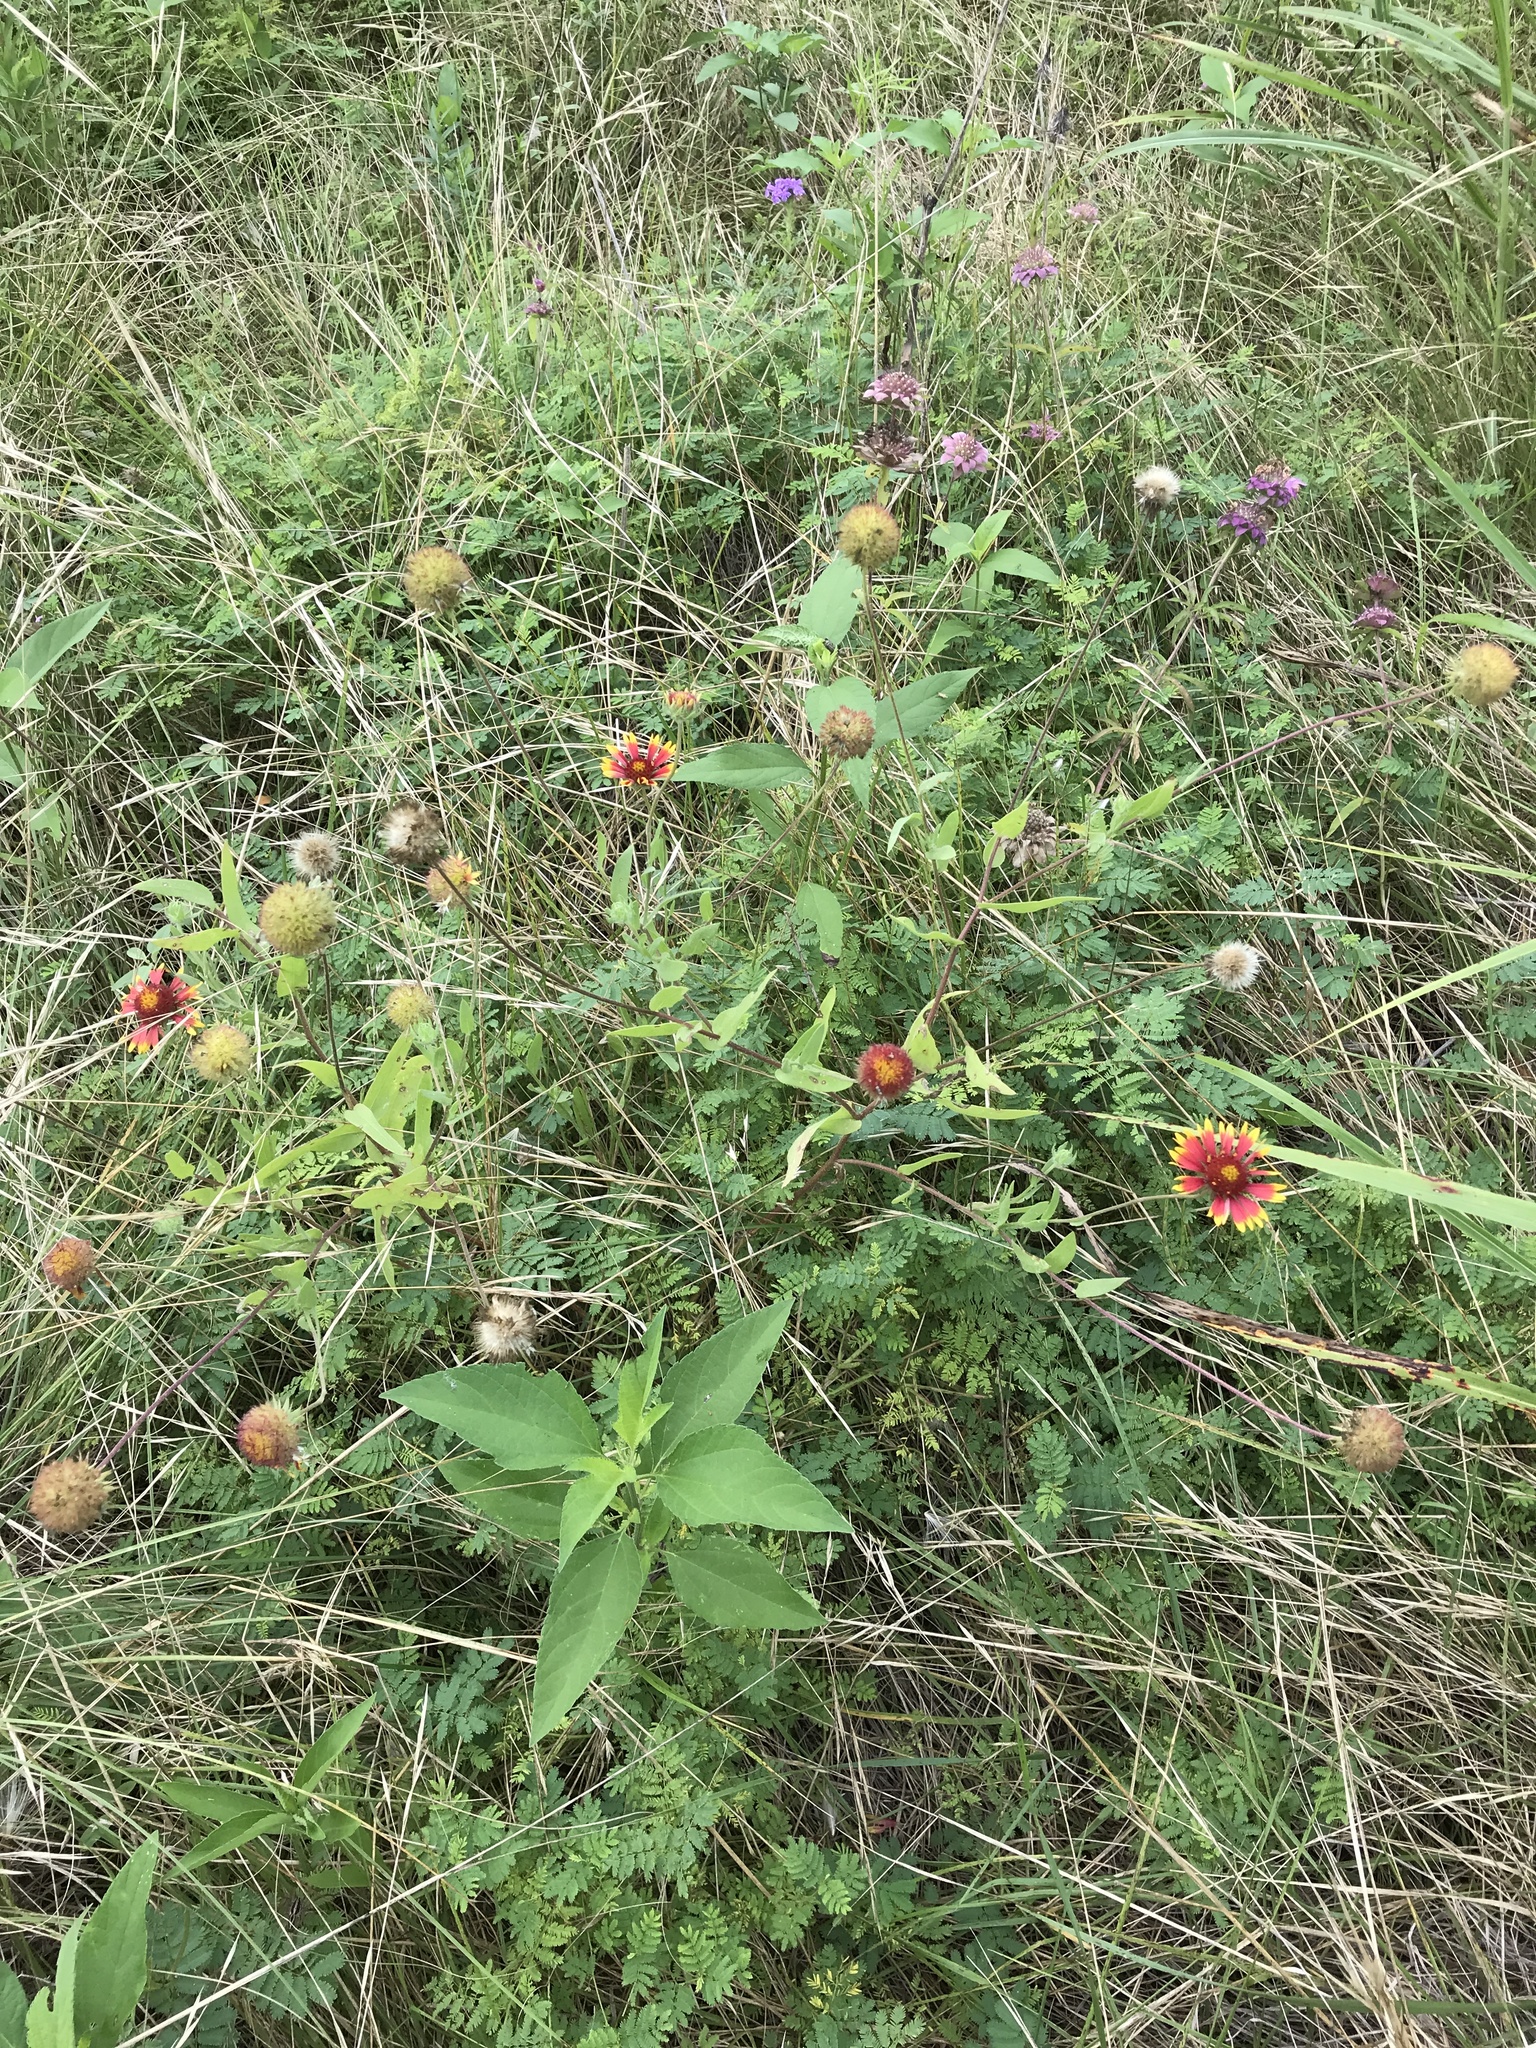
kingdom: Plantae
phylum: Tracheophyta
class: Magnoliopsida
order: Asterales
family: Asteraceae
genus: Gaillardia
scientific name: Gaillardia pulchella
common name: Firewheel
